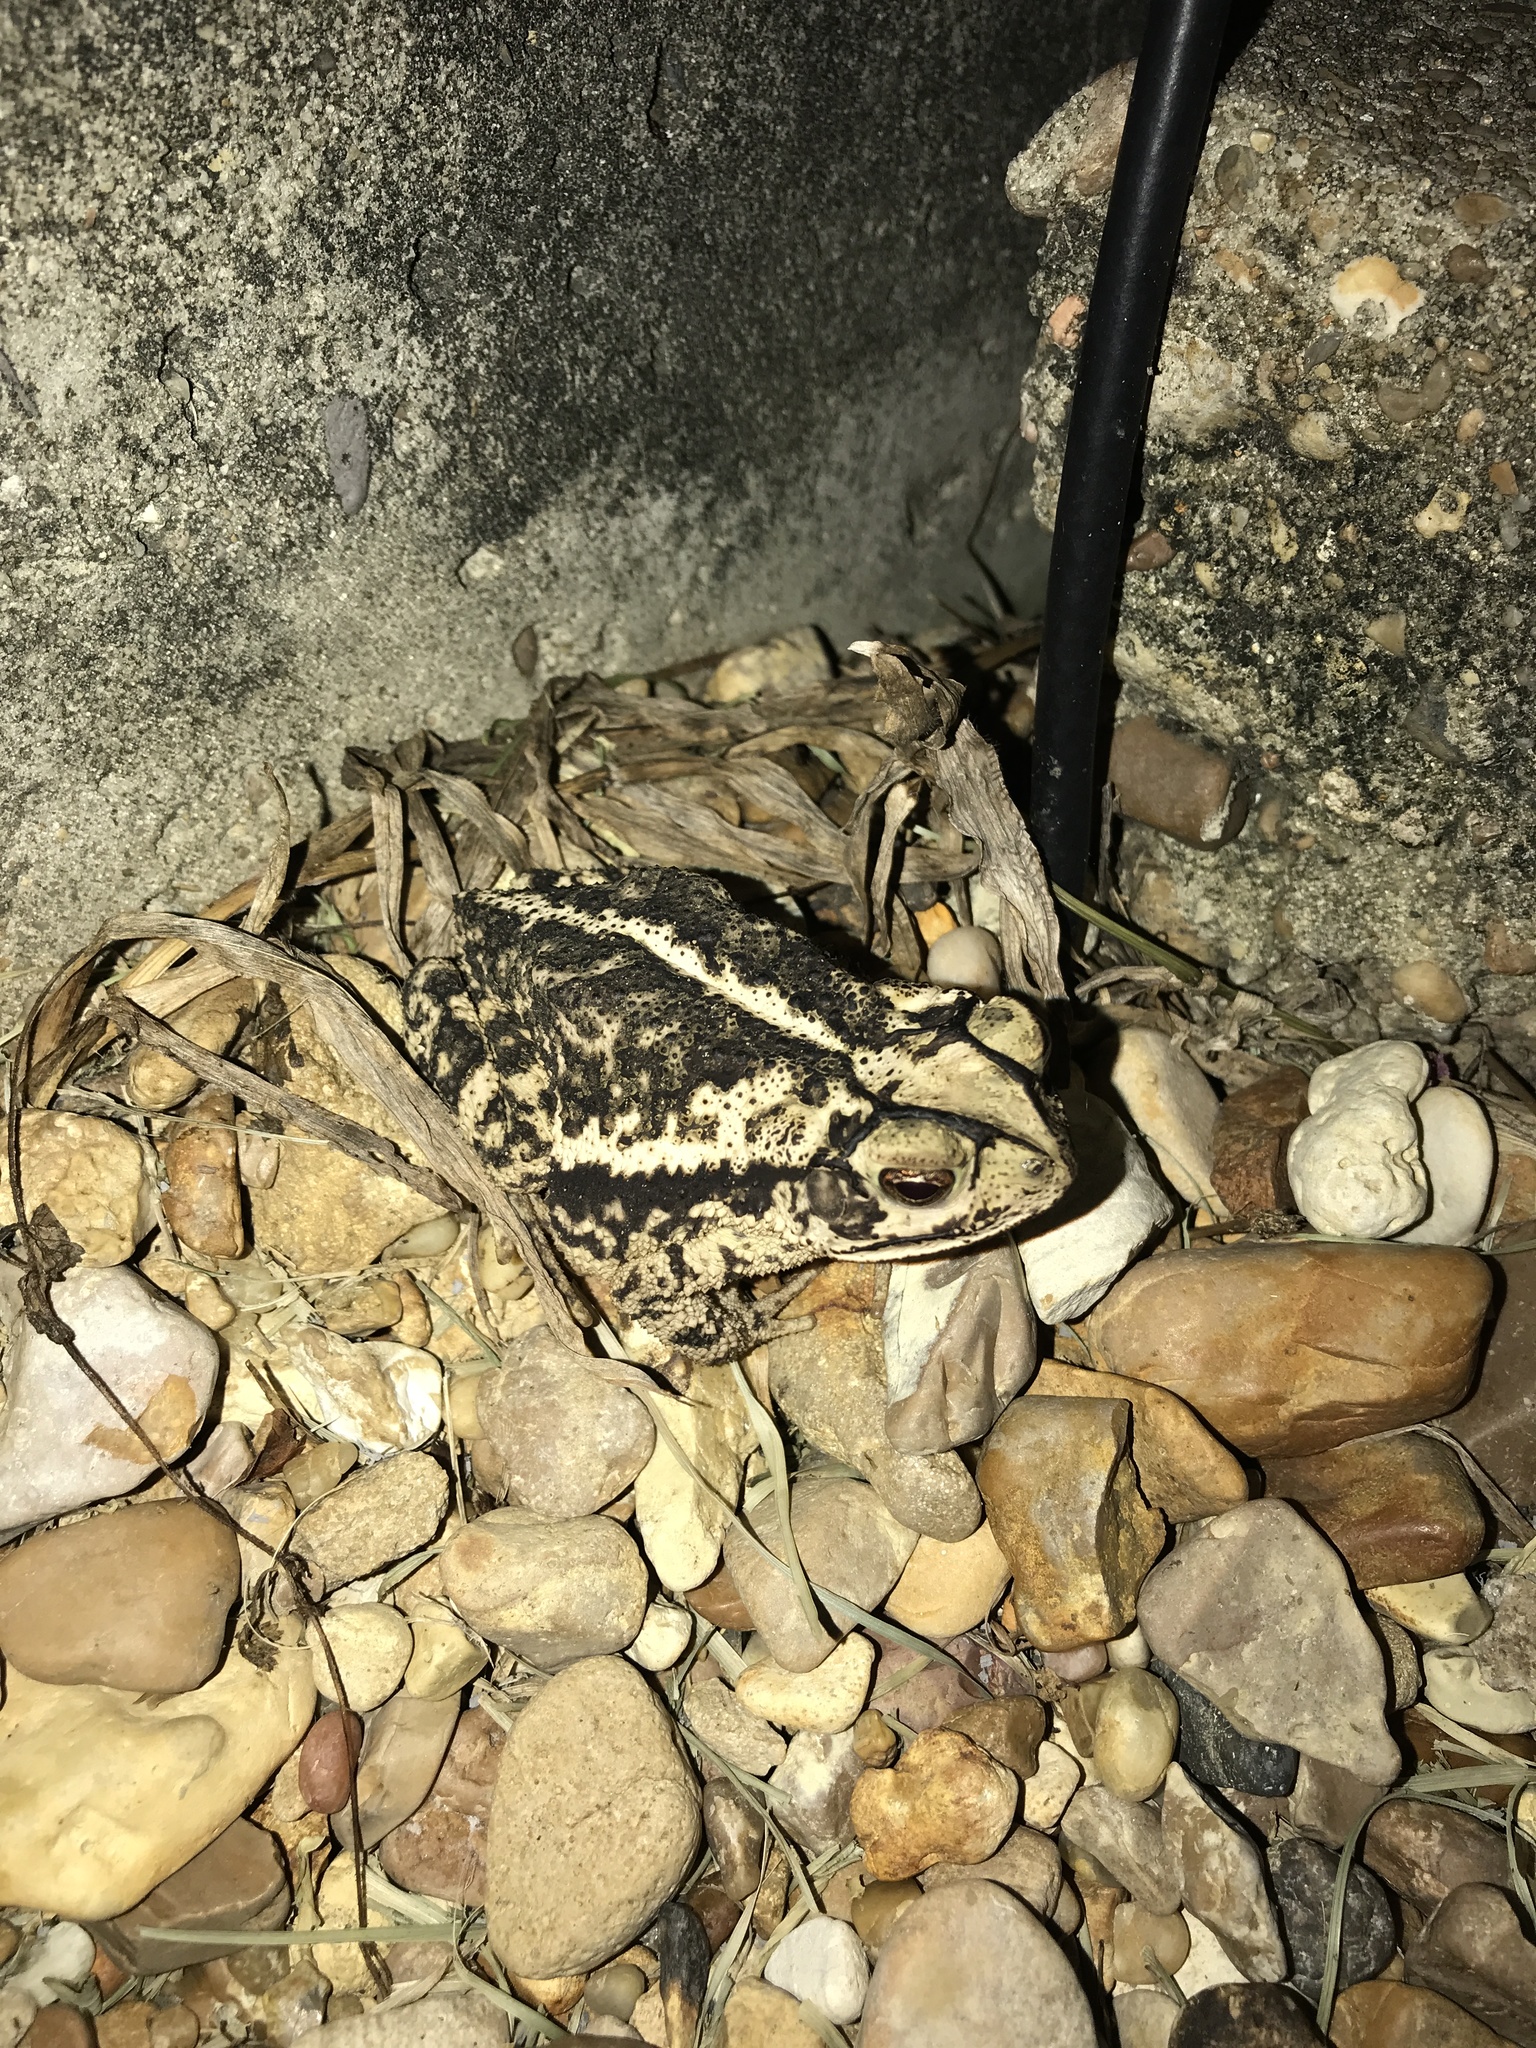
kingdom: Animalia
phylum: Chordata
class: Amphibia
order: Anura
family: Bufonidae
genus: Incilius
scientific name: Incilius nebulifer
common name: Gulf coast toad
